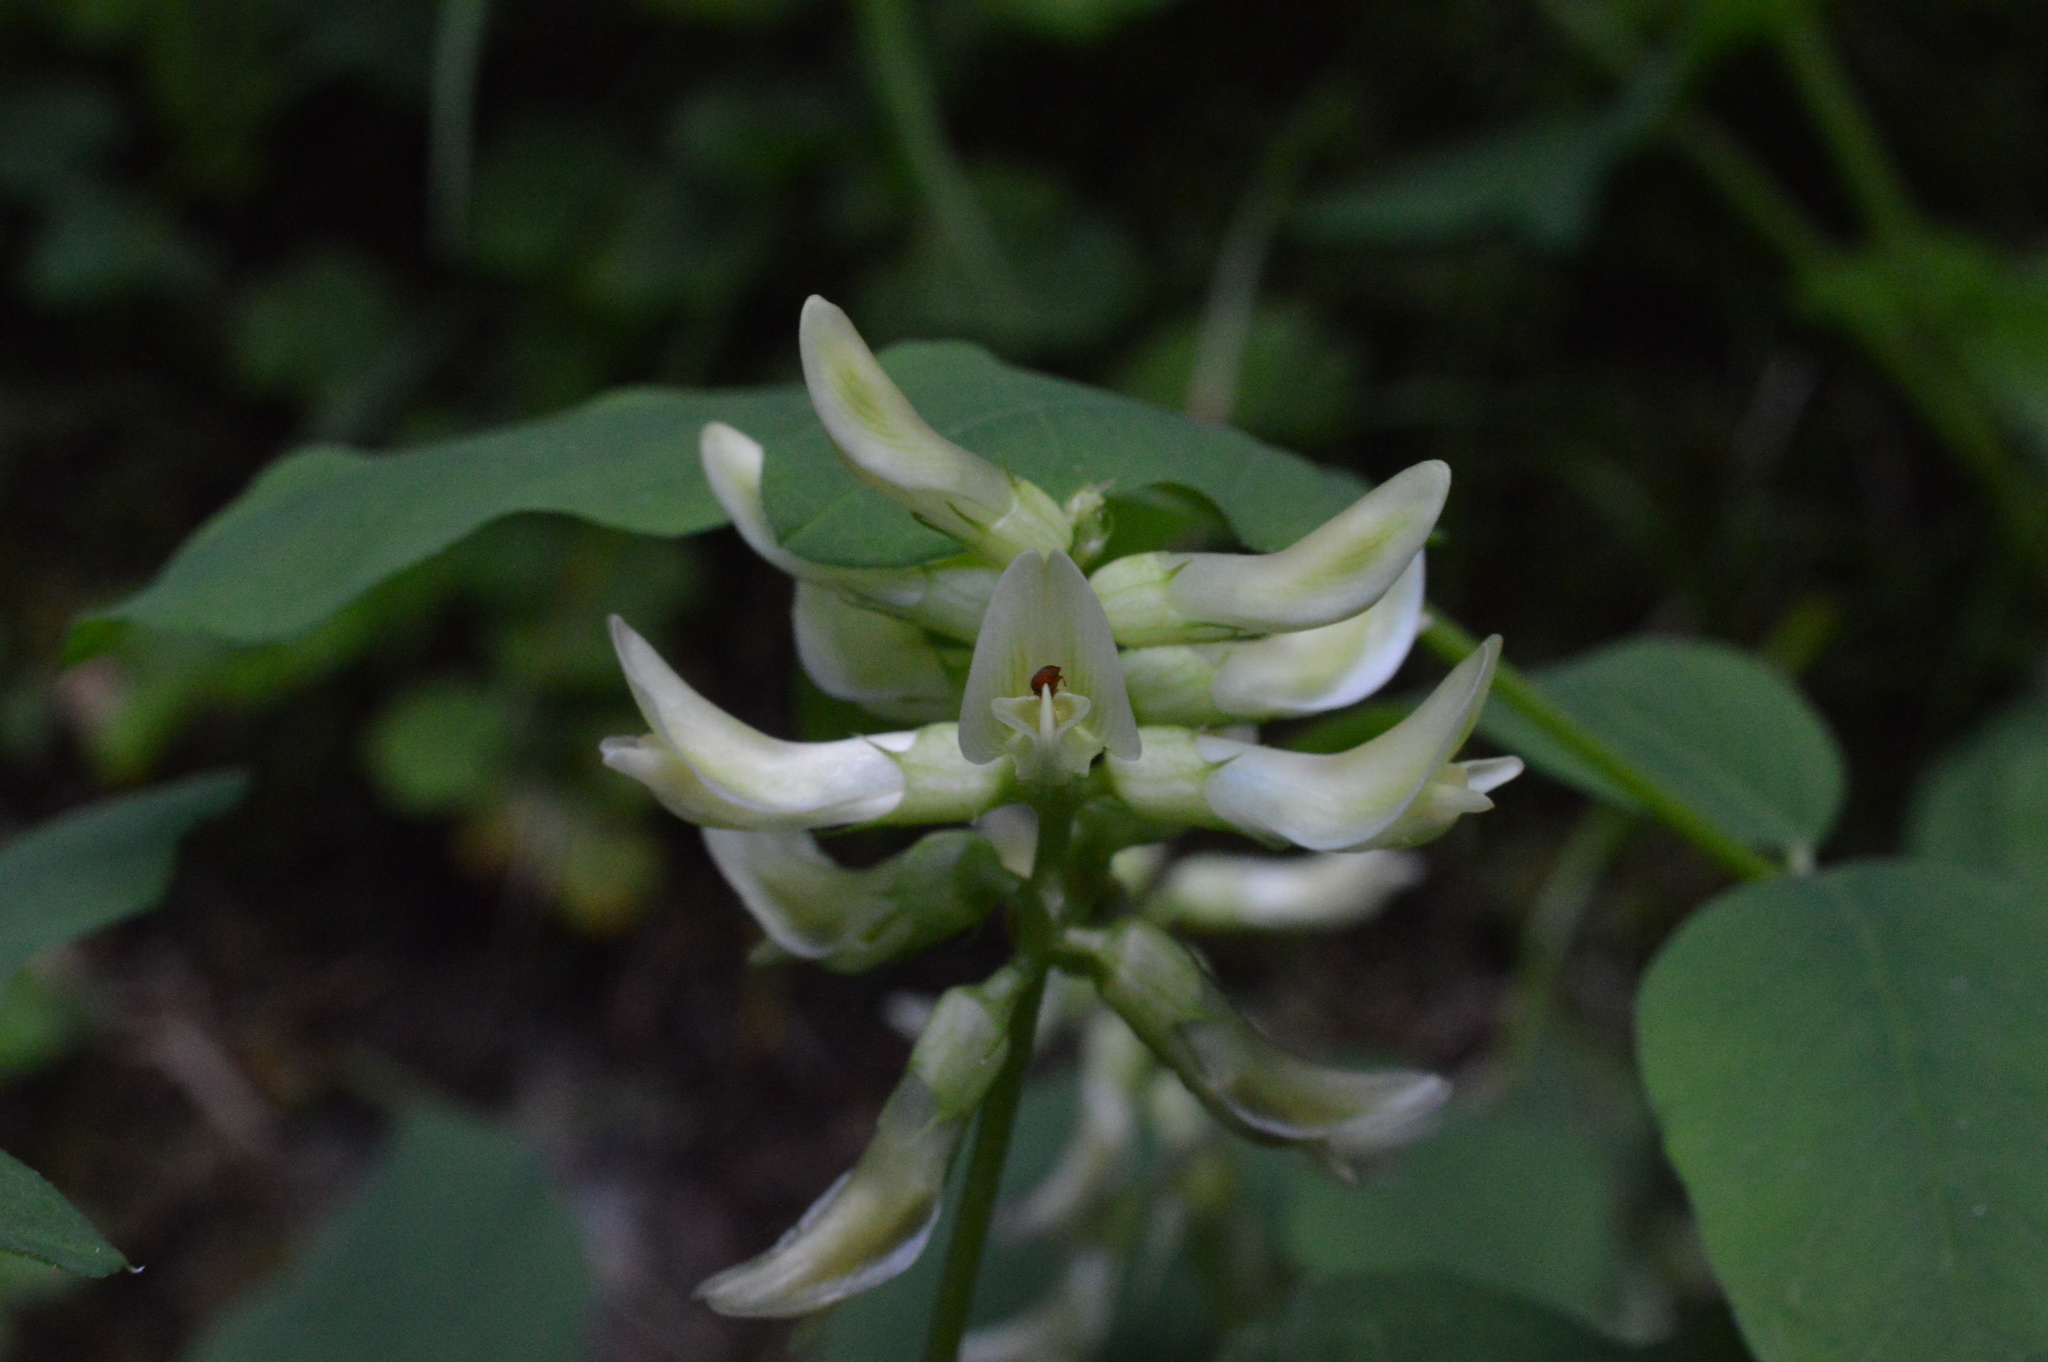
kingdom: Plantae
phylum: Tracheophyta
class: Magnoliopsida
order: Fabales
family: Fabaceae
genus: Astragalus
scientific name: Astragalus glycyphyllos
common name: Wild liquorice
